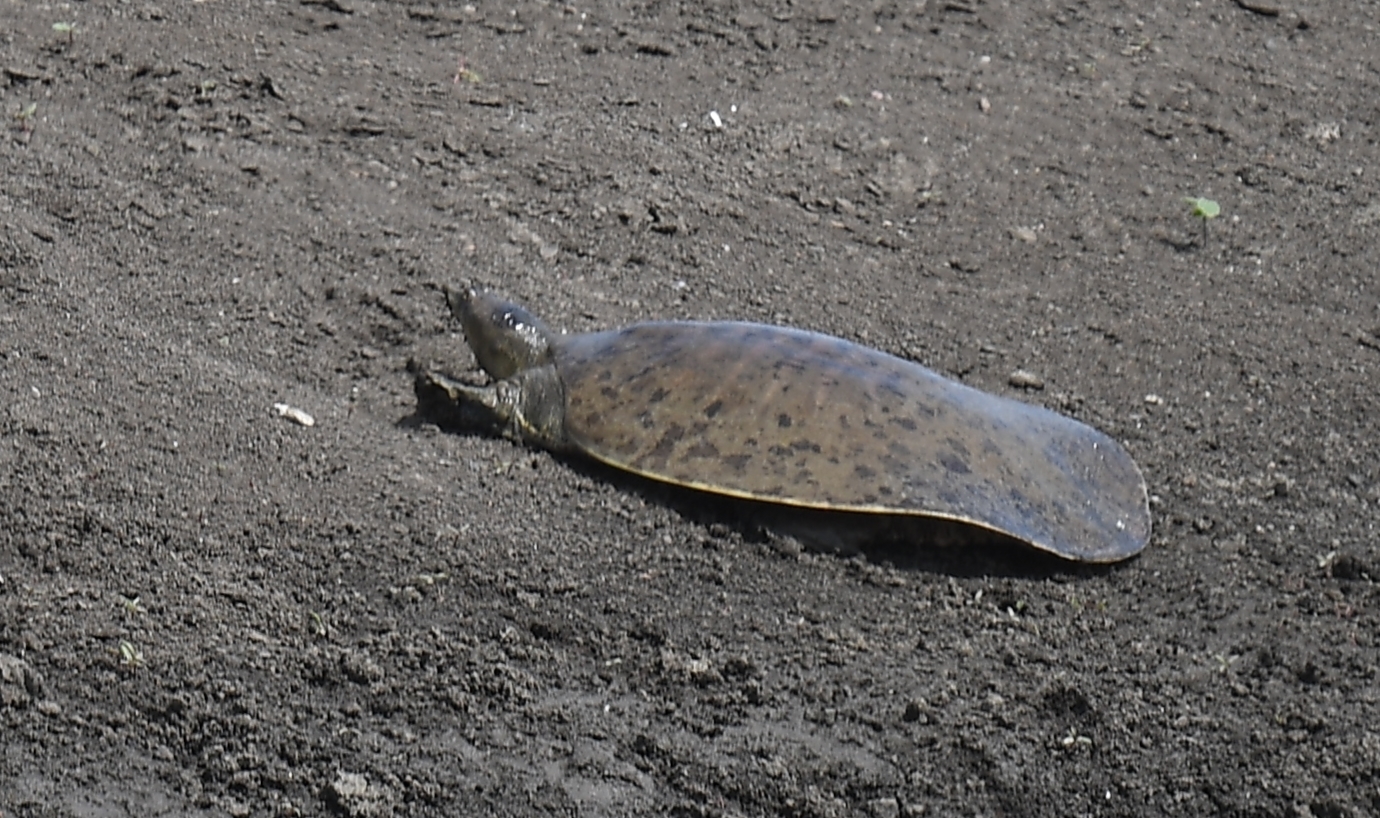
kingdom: Animalia
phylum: Chordata
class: Testudines
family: Trionychidae
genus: Apalone
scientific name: Apalone spinifera
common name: Spiny softshell turtle
